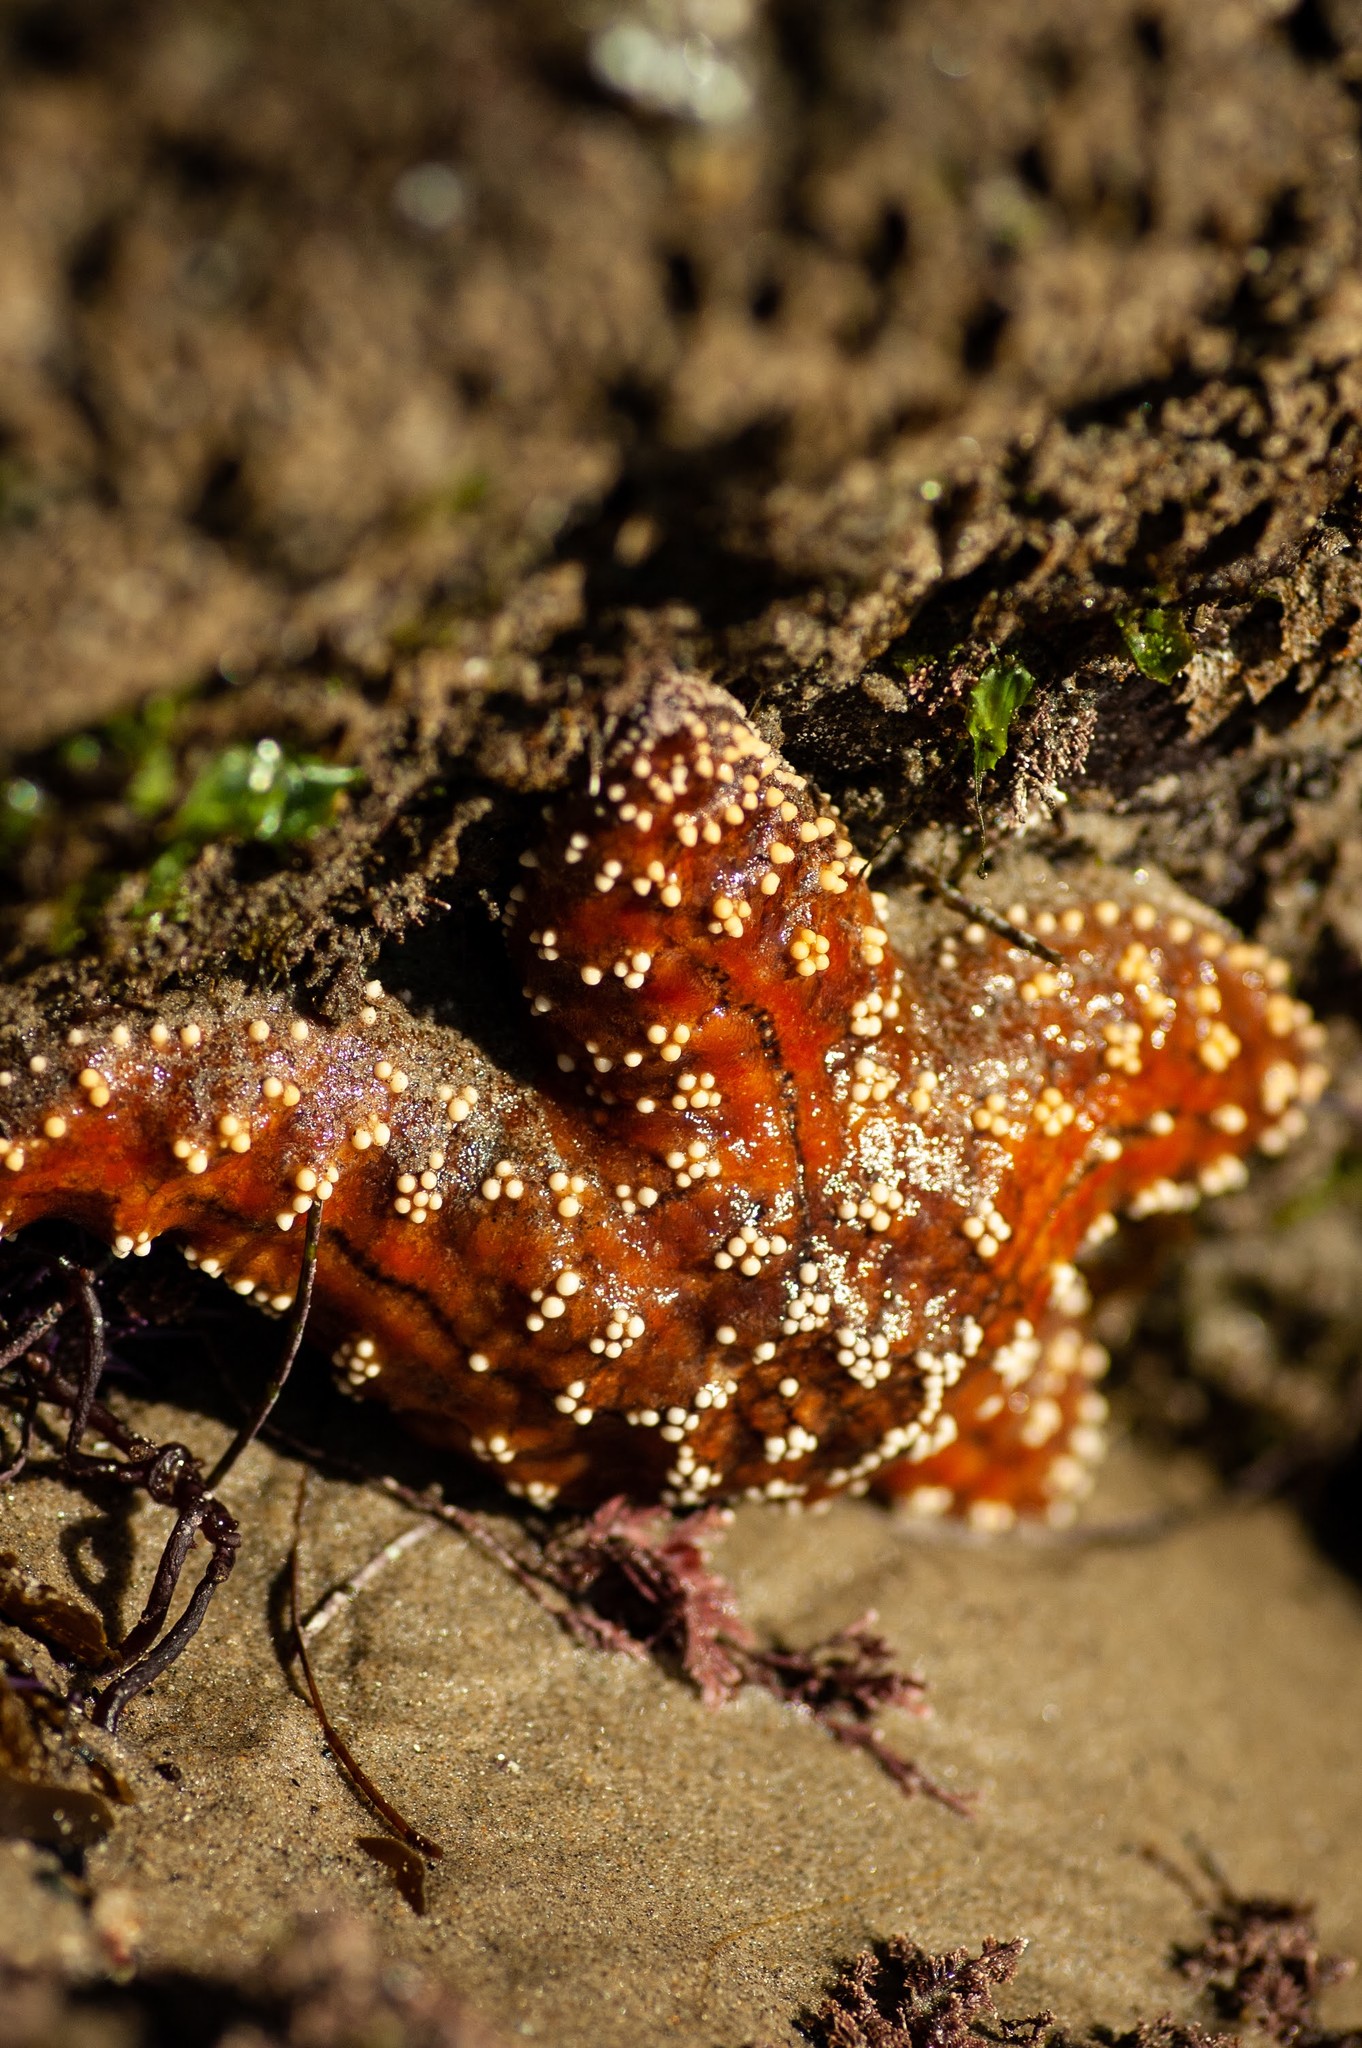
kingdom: Animalia
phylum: Echinodermata
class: Asteroidea
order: Forcipulatida
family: Asteriidae
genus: Pisaster
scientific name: Pisaster ochraceus
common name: Ochre stars
